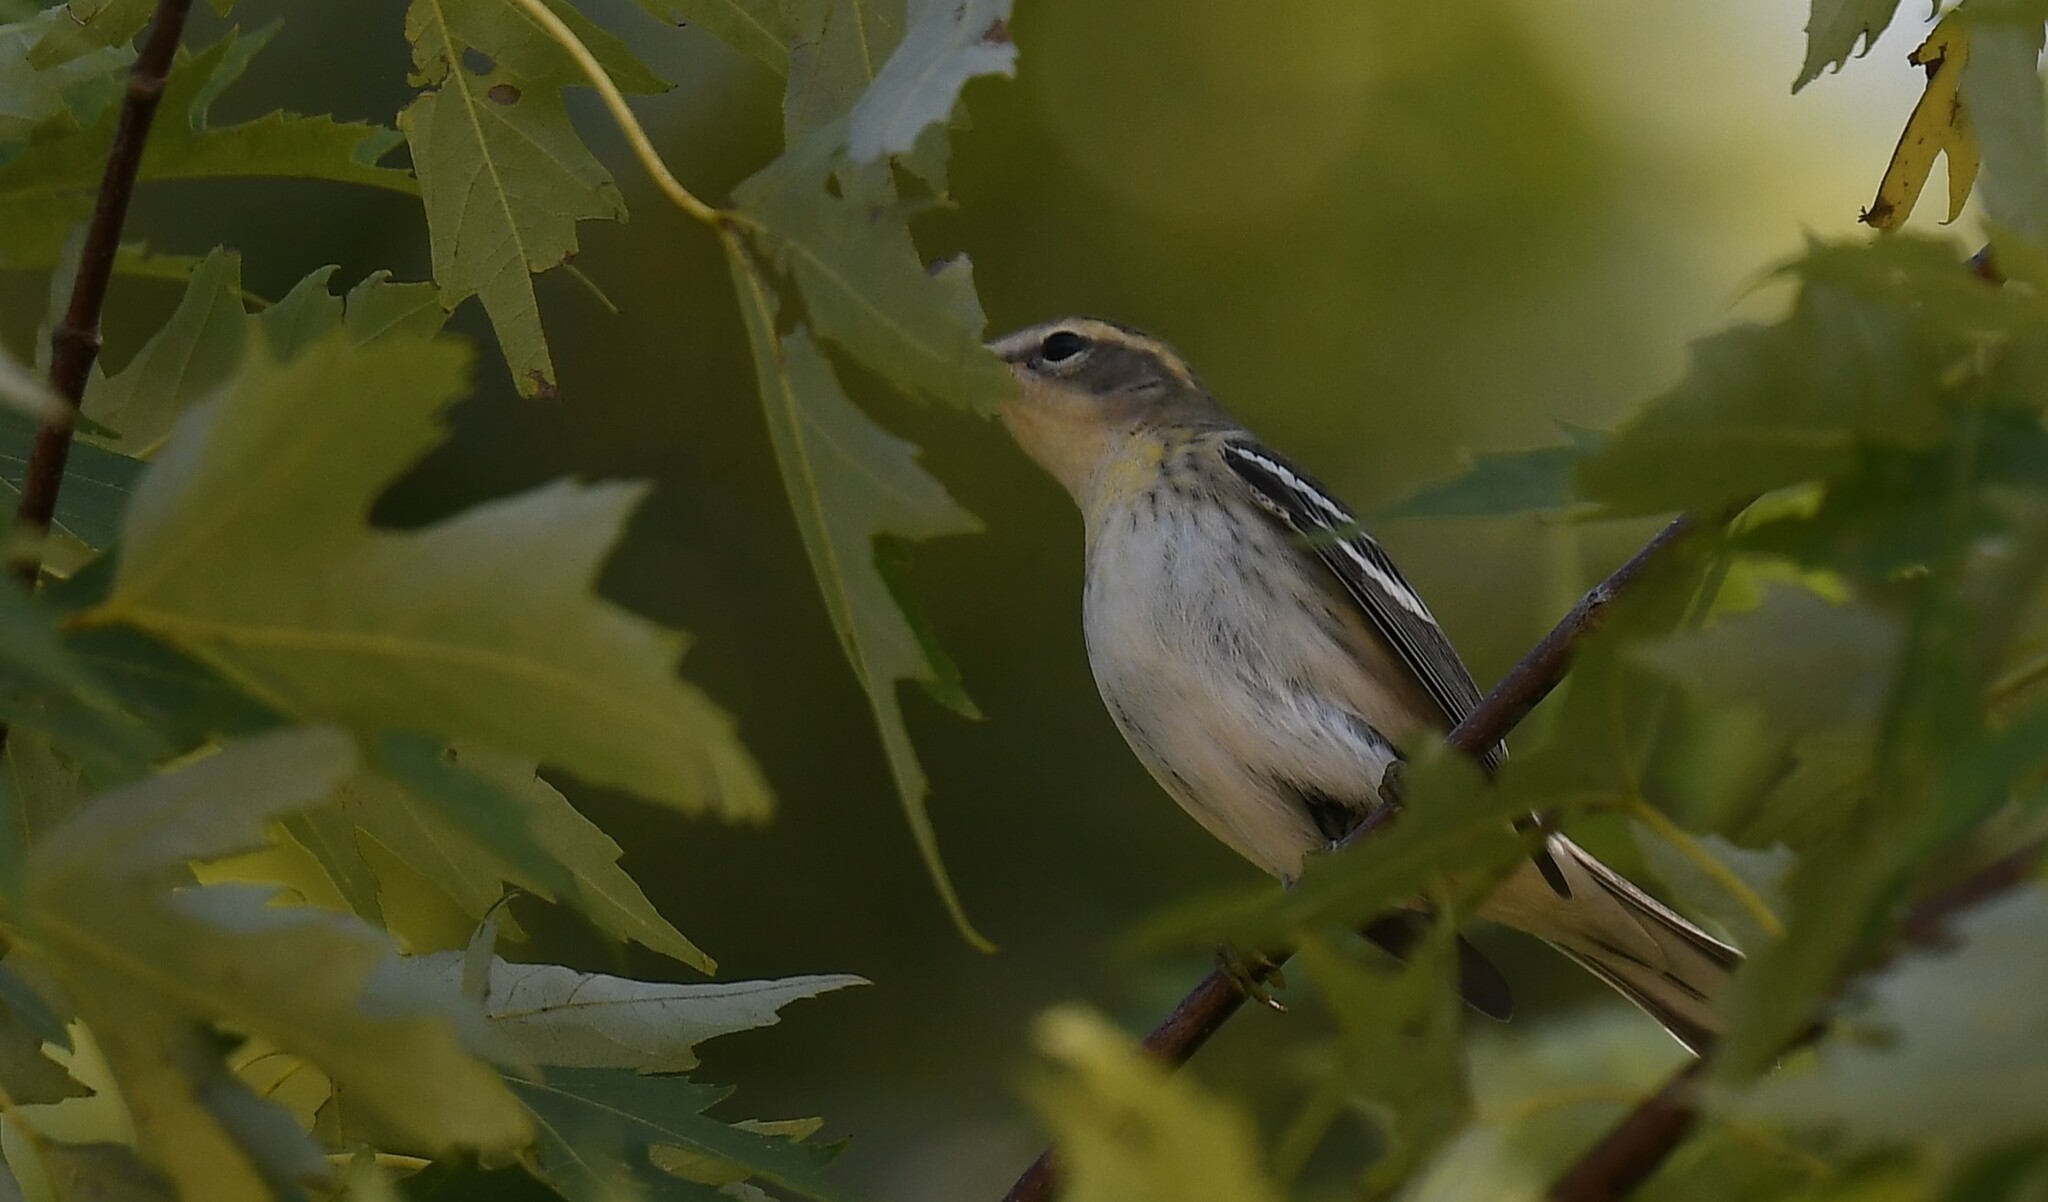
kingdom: Animalia
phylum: Chordata
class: Aves
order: Passeriformes
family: Parulidae
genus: Setophaga
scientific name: Setophaga fusca
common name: Blackburnian warbler
